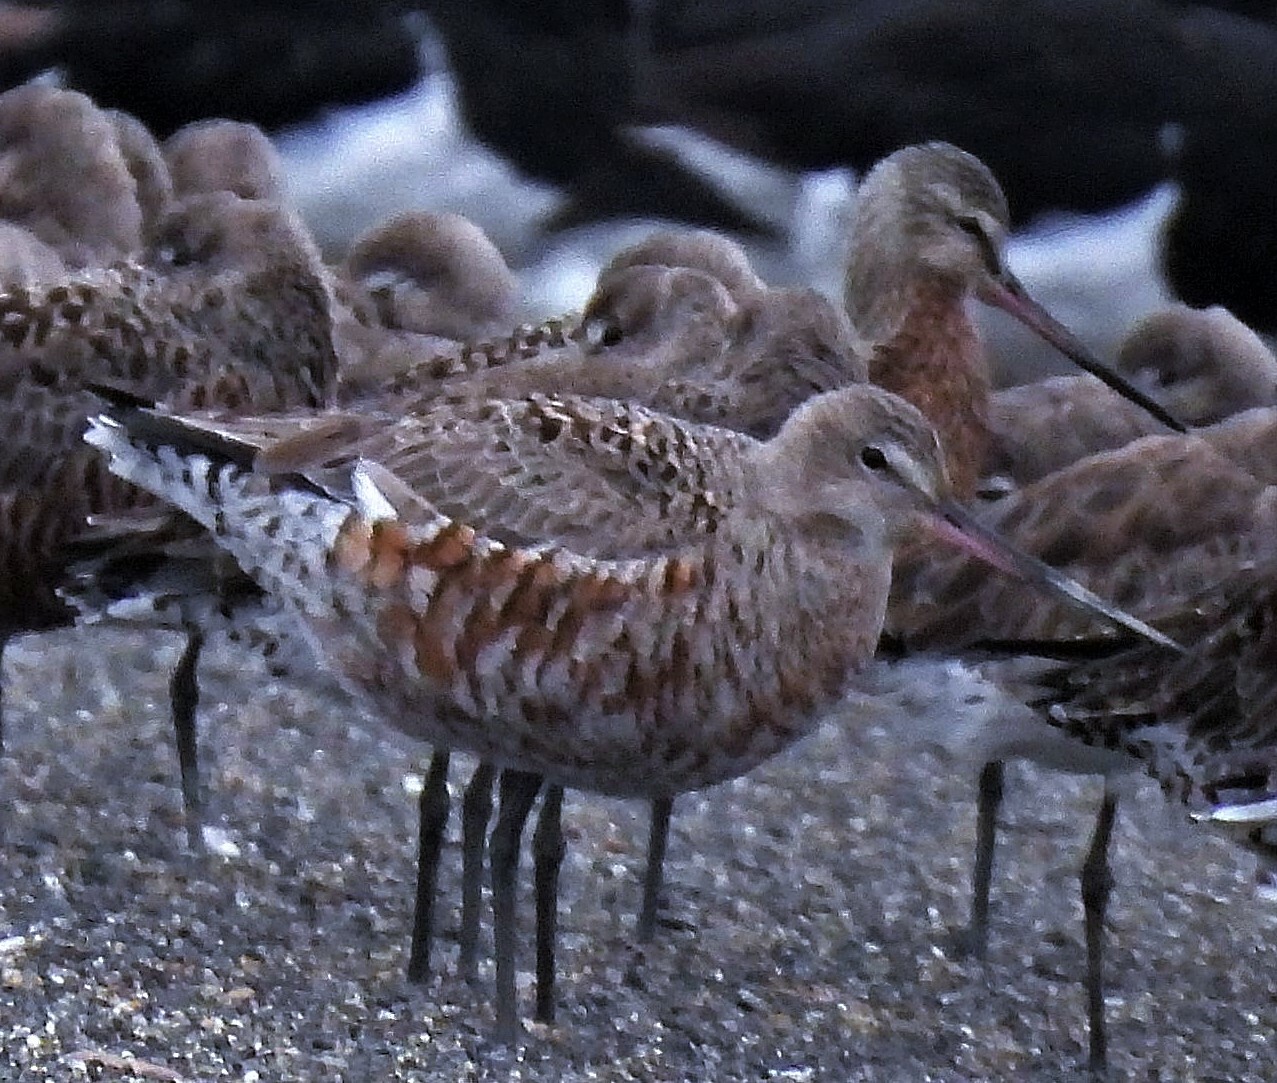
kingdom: Animalia
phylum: Chordata
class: Aves
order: Charadriiformes
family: Scolopacidae
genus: Limosa
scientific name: Limosa haemastica
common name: Hudsonian godwit
